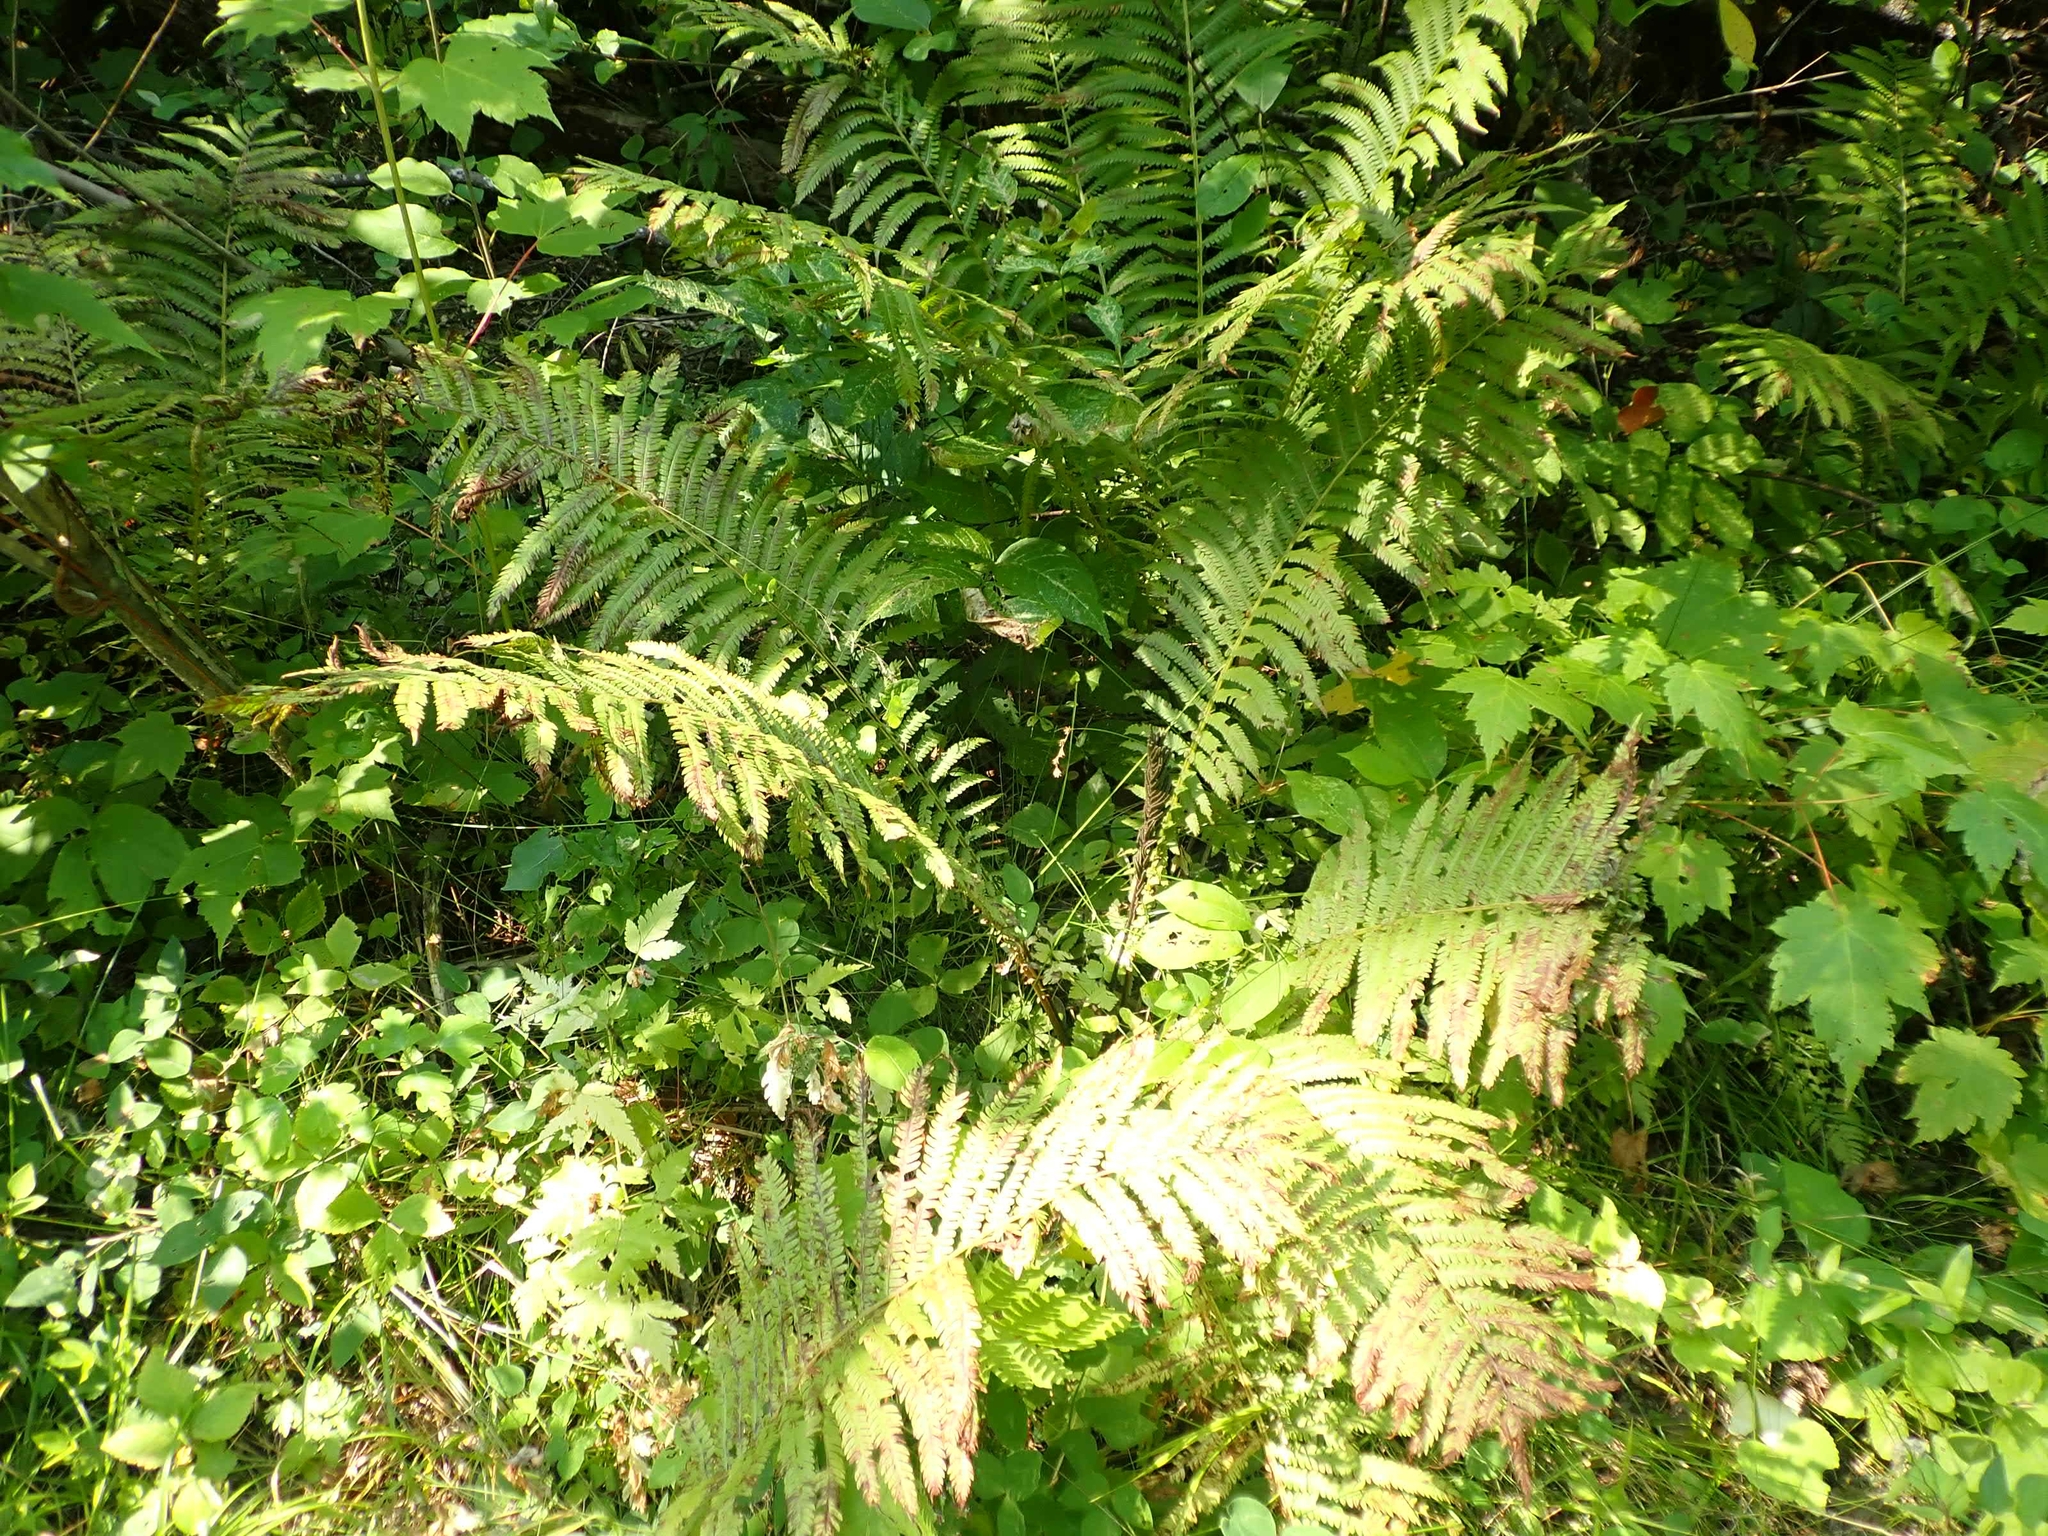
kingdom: Plantae
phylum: Tracheophyta
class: Polypodiopsida
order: Polypodiales
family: Onocleaceae
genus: Matteuccia
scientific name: Matteuccia struthiopteris
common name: Ostrich fern
